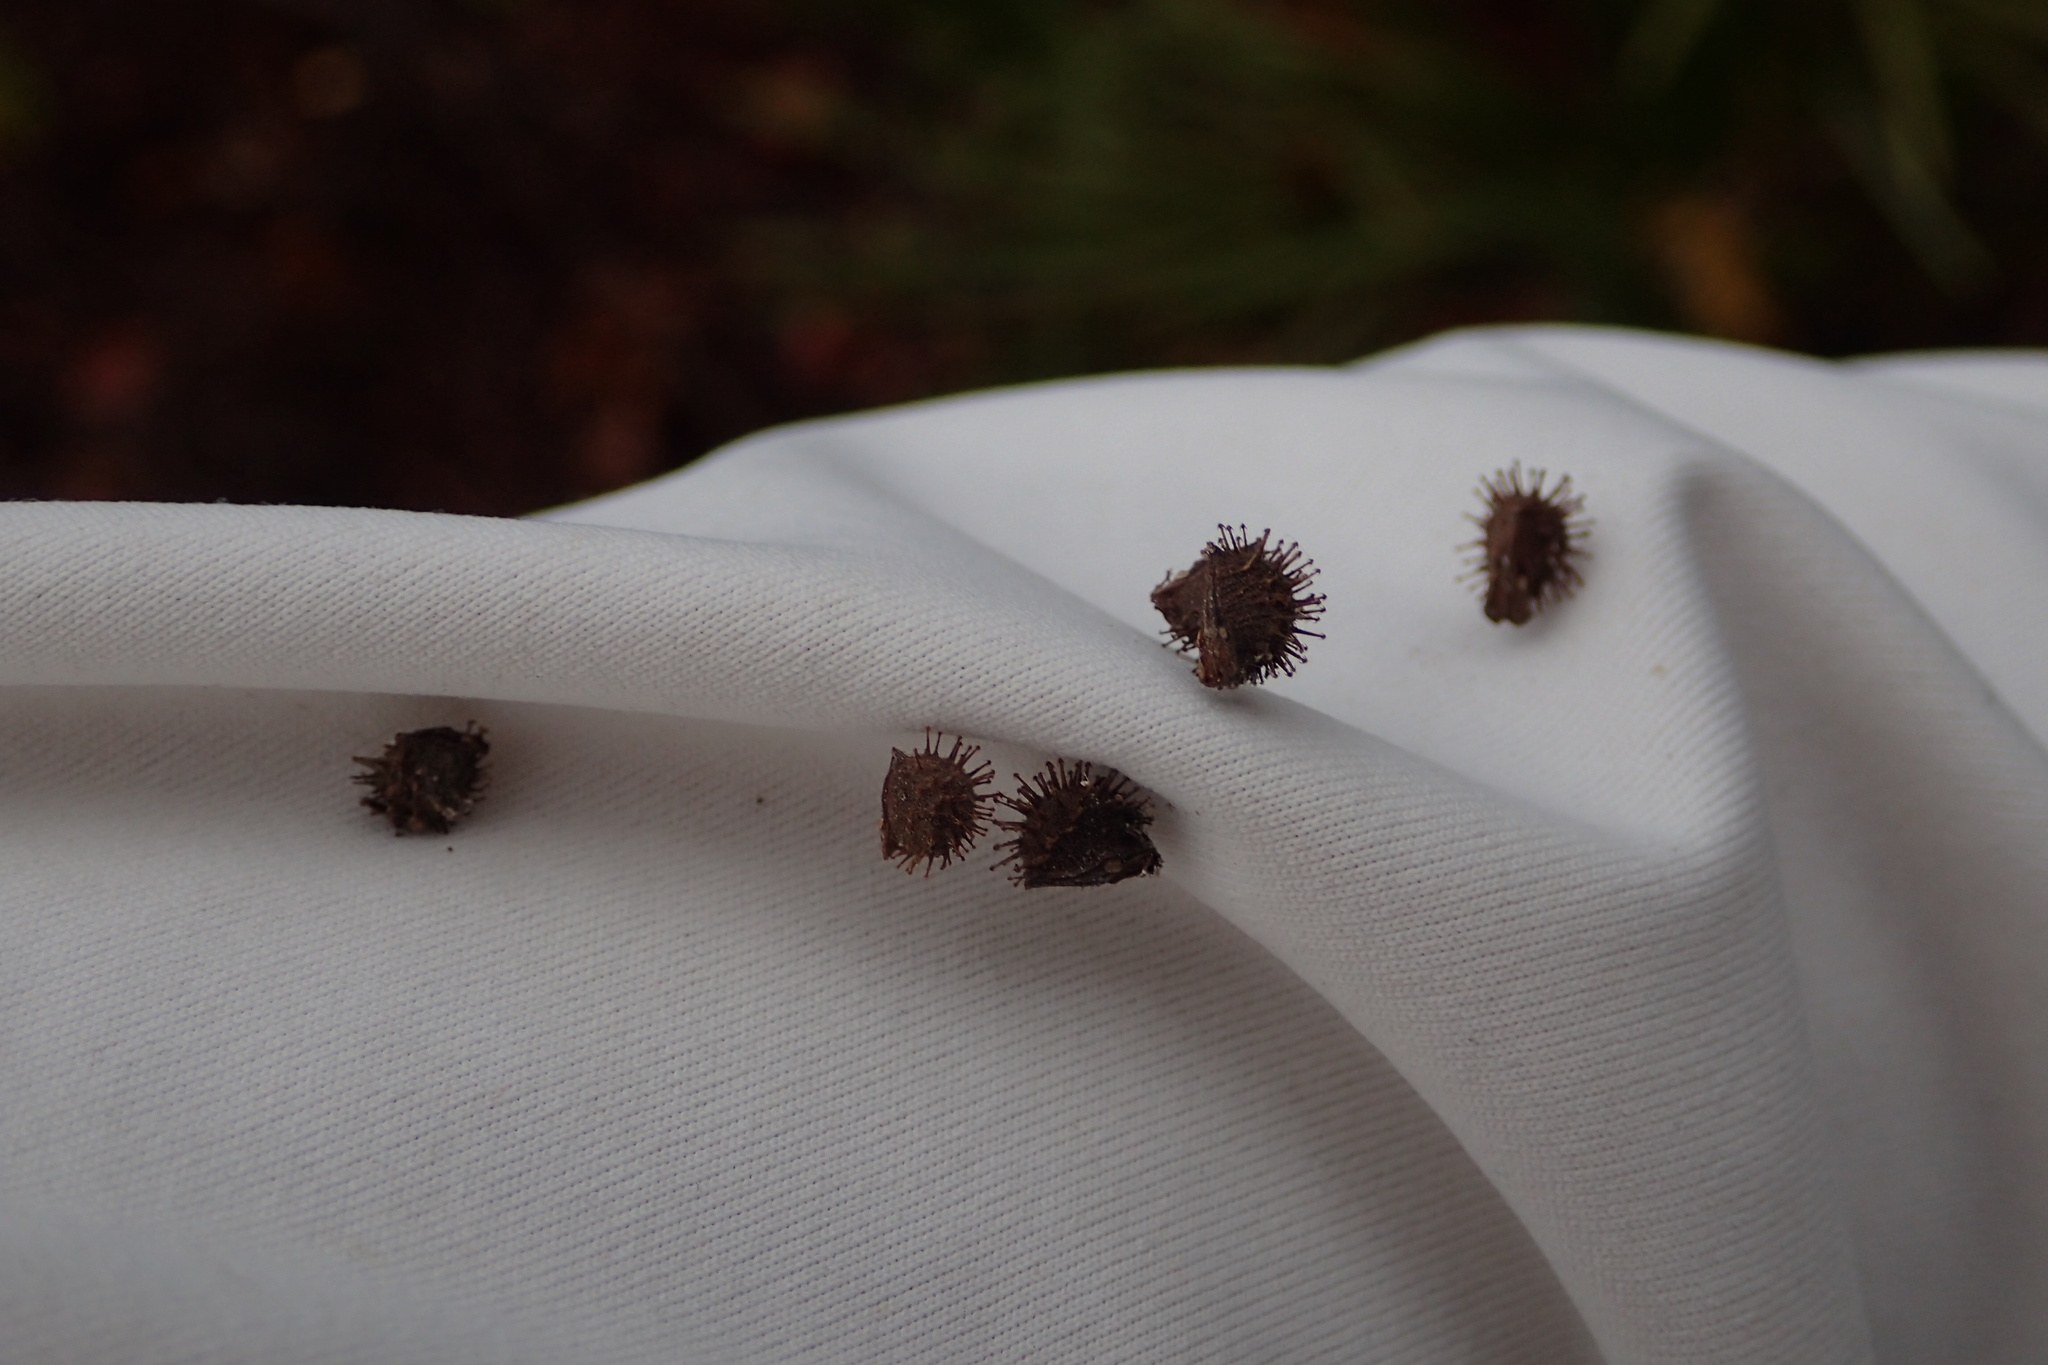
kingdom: Plantae
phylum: Tracheophyta
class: Magnoliopsida
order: Malvales
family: Malvaceae
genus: Urena
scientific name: Urena lobata
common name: Caesarweed
